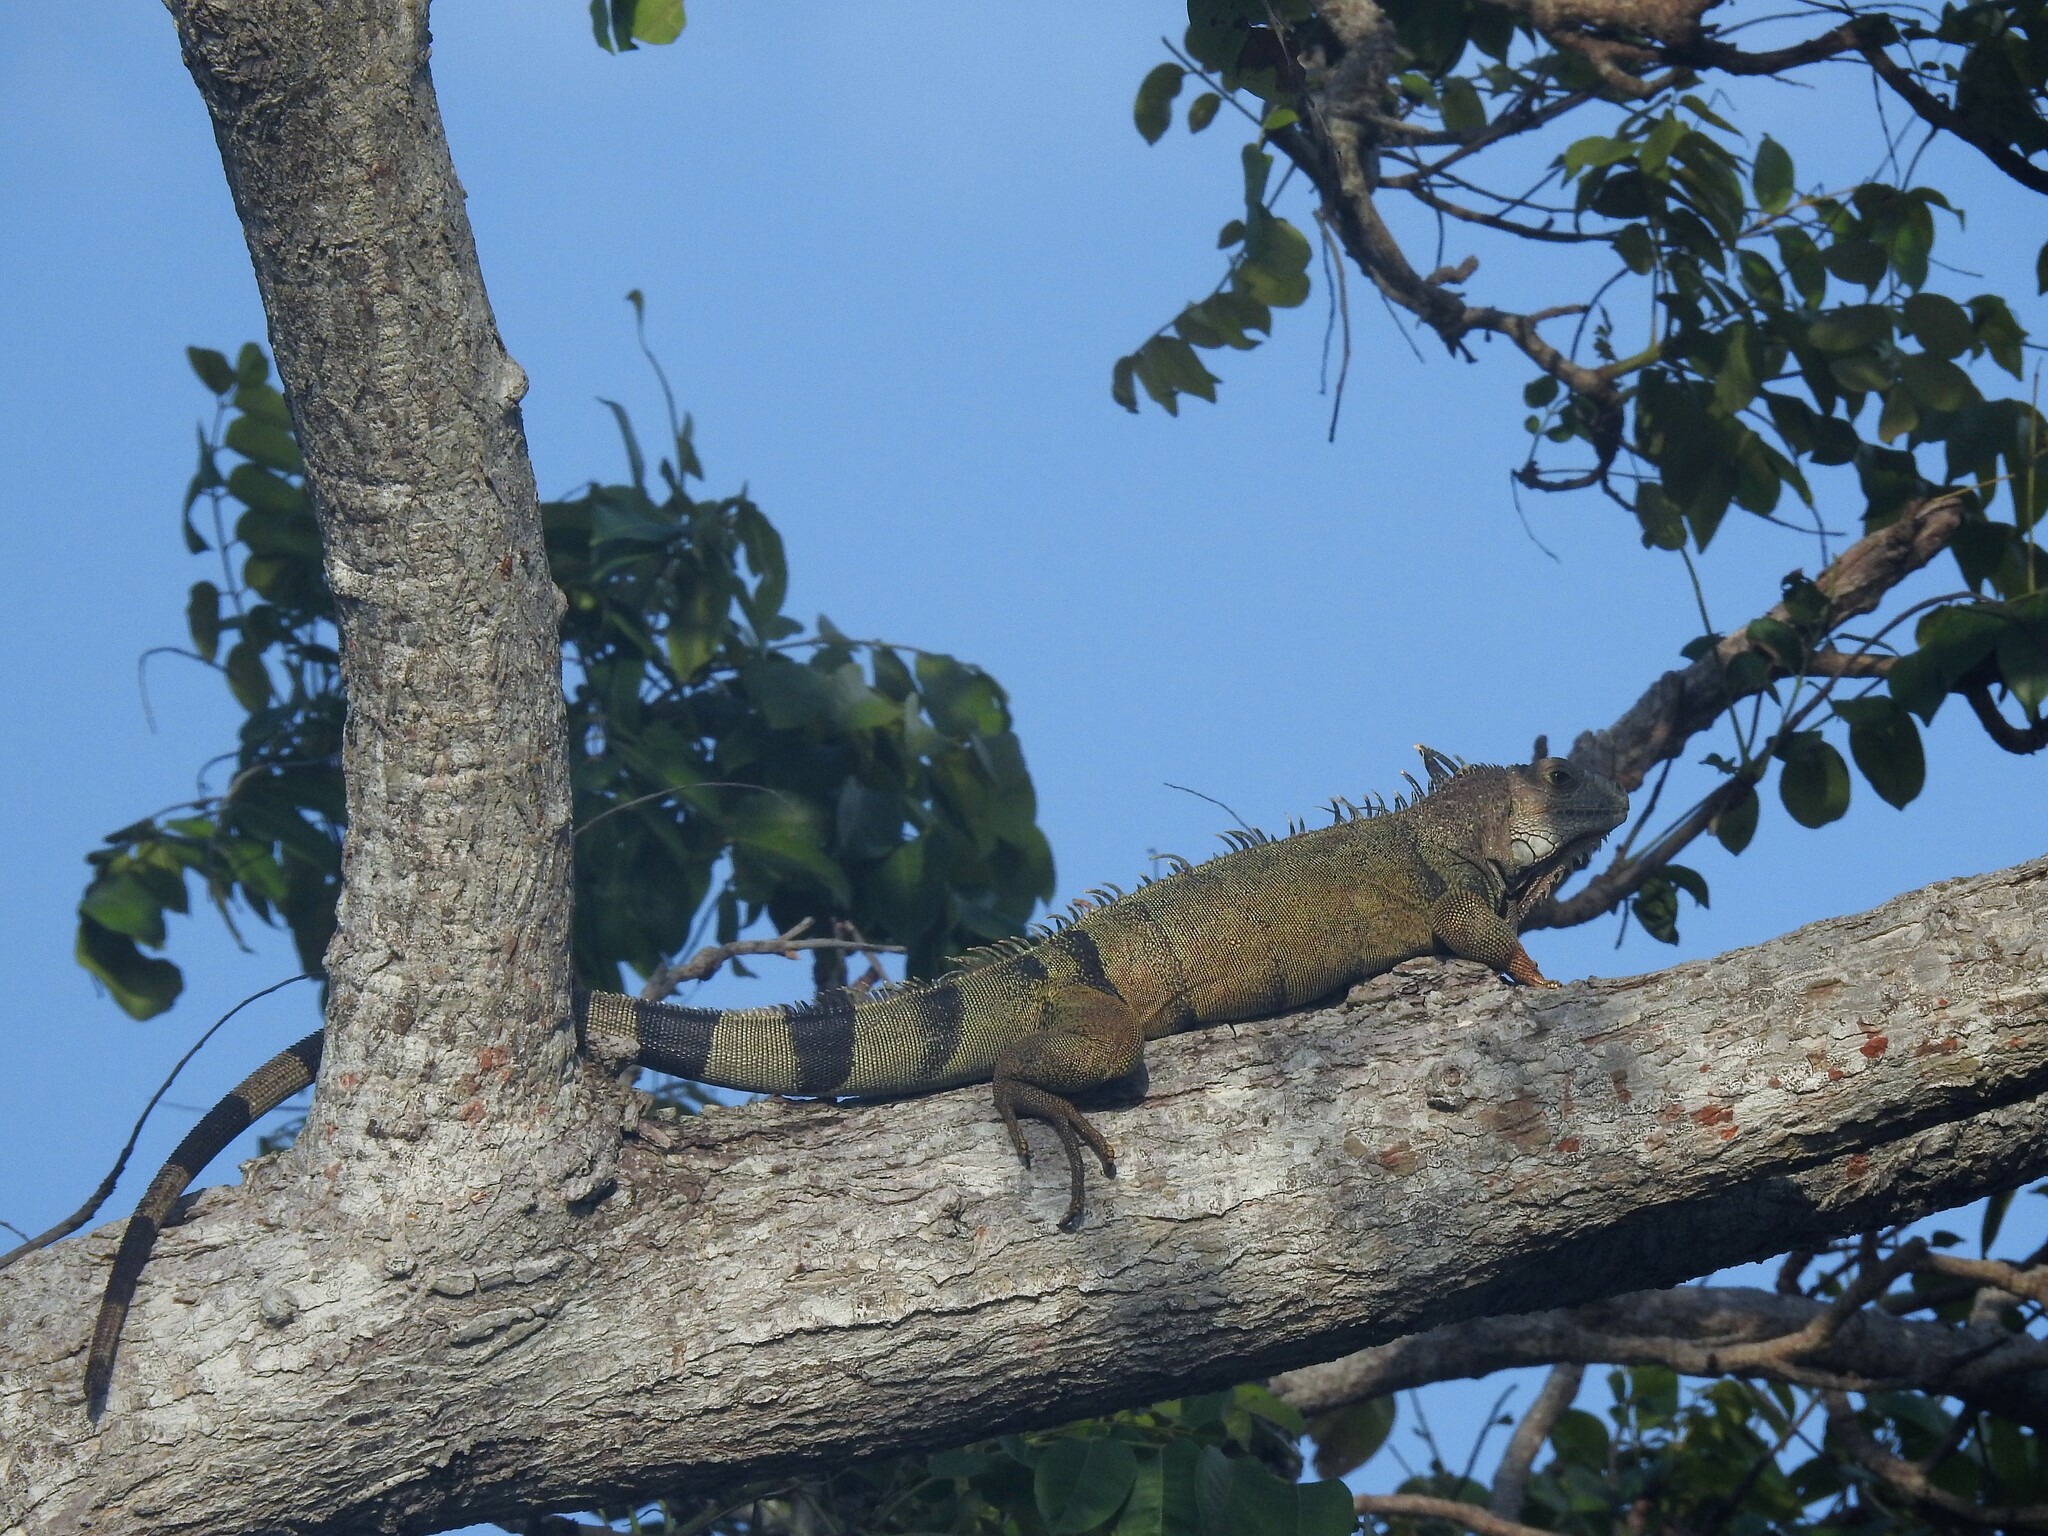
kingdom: Animalia
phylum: Chordata
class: Squamata
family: Iguanidae
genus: Iguana
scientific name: Iguana iguana
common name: Green iguana
